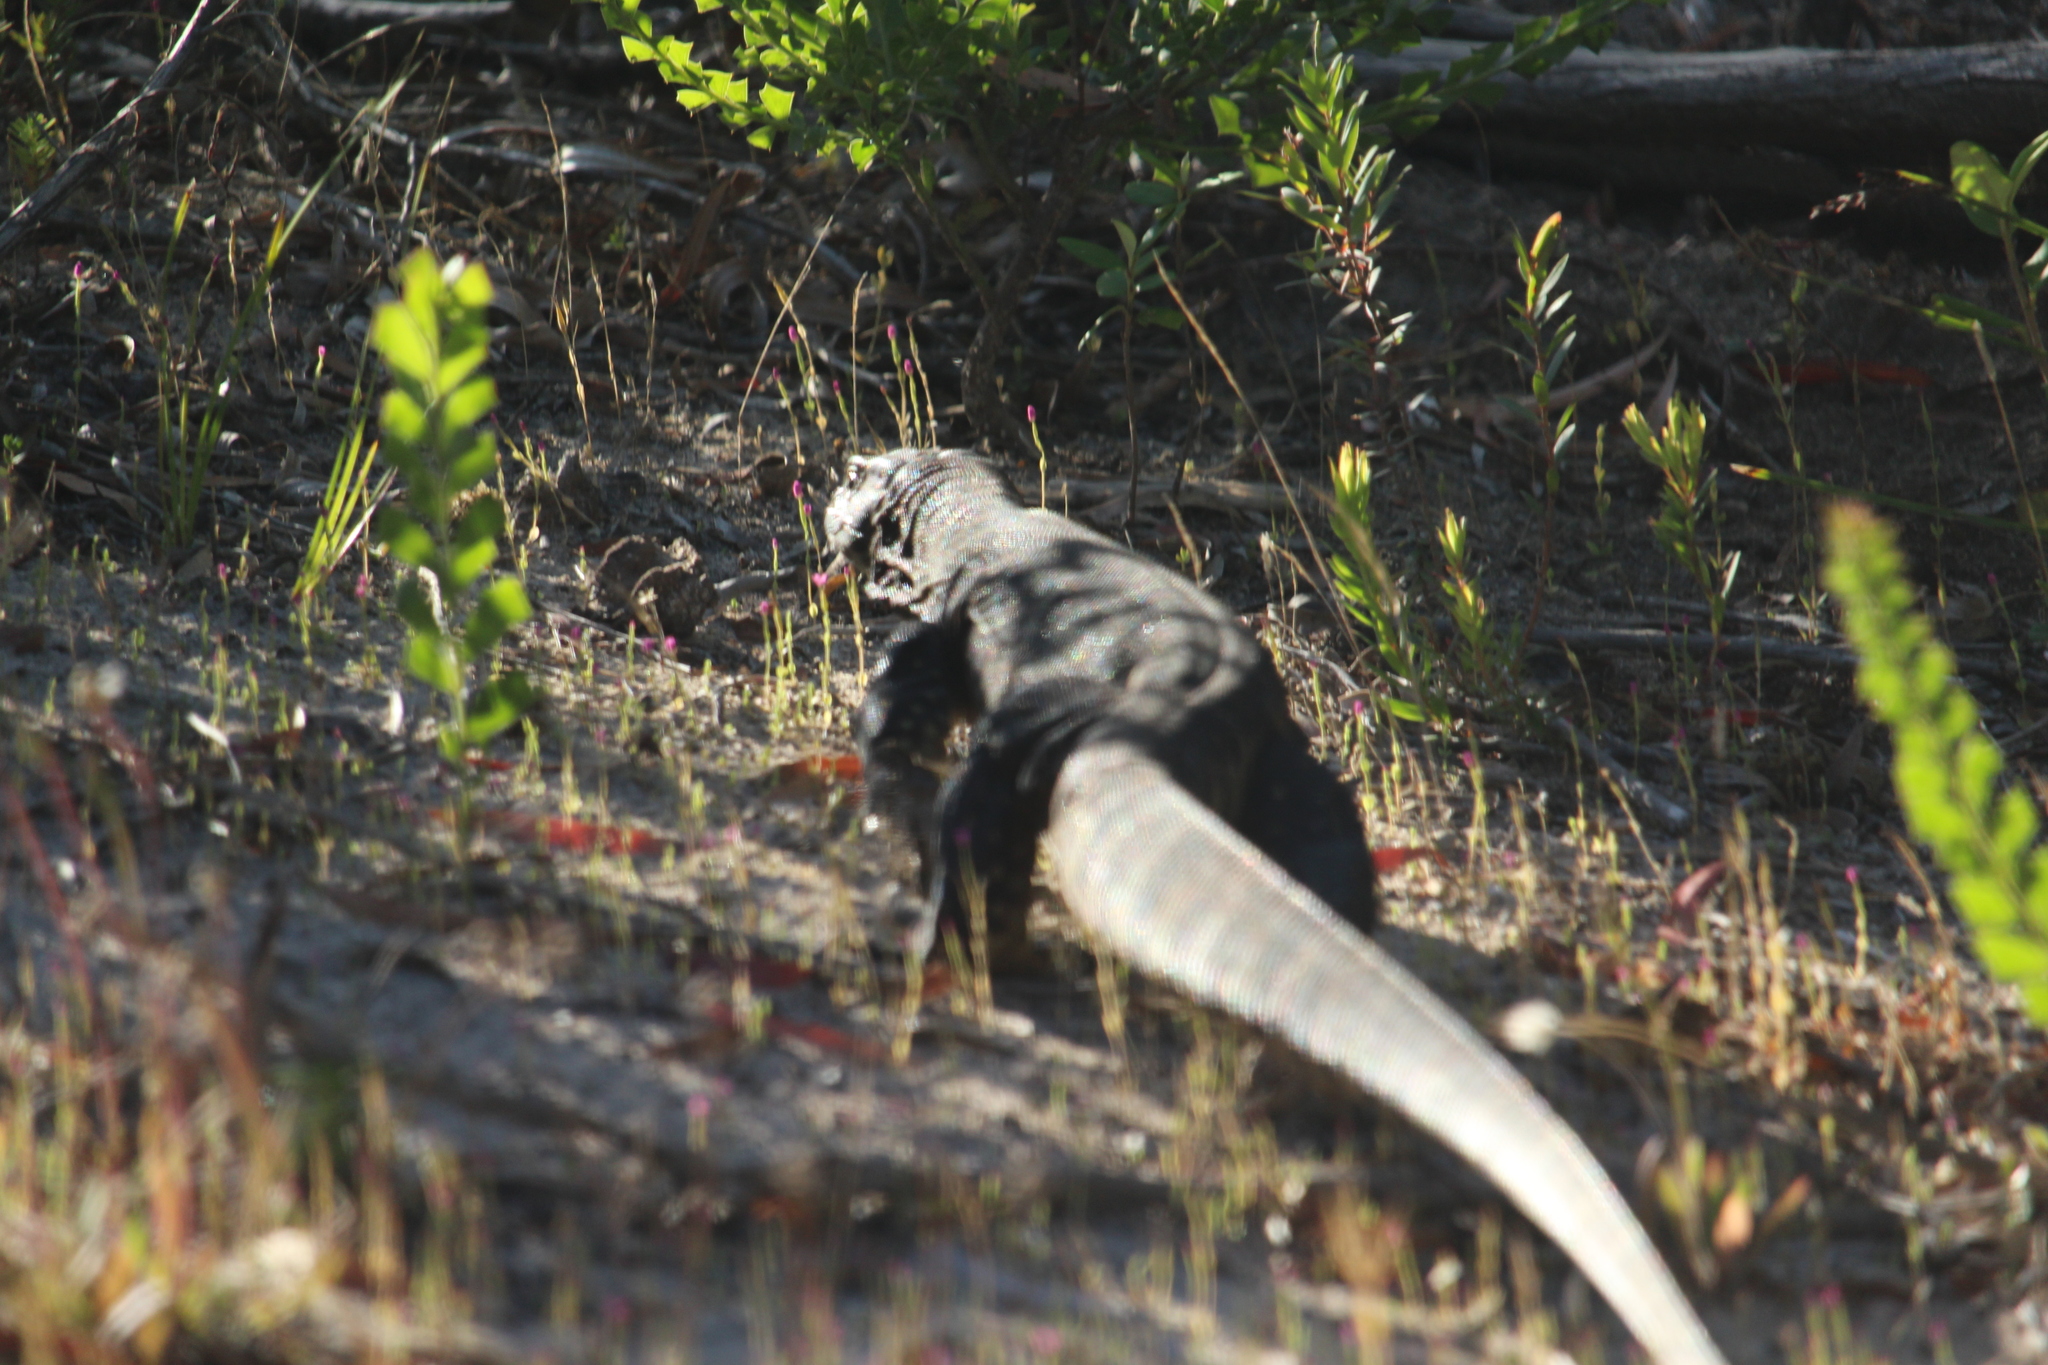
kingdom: Animalia
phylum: Chordata
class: Squamata
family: Varanidae
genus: Varanus
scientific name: Varanus rosenbergi
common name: Heath monitor
